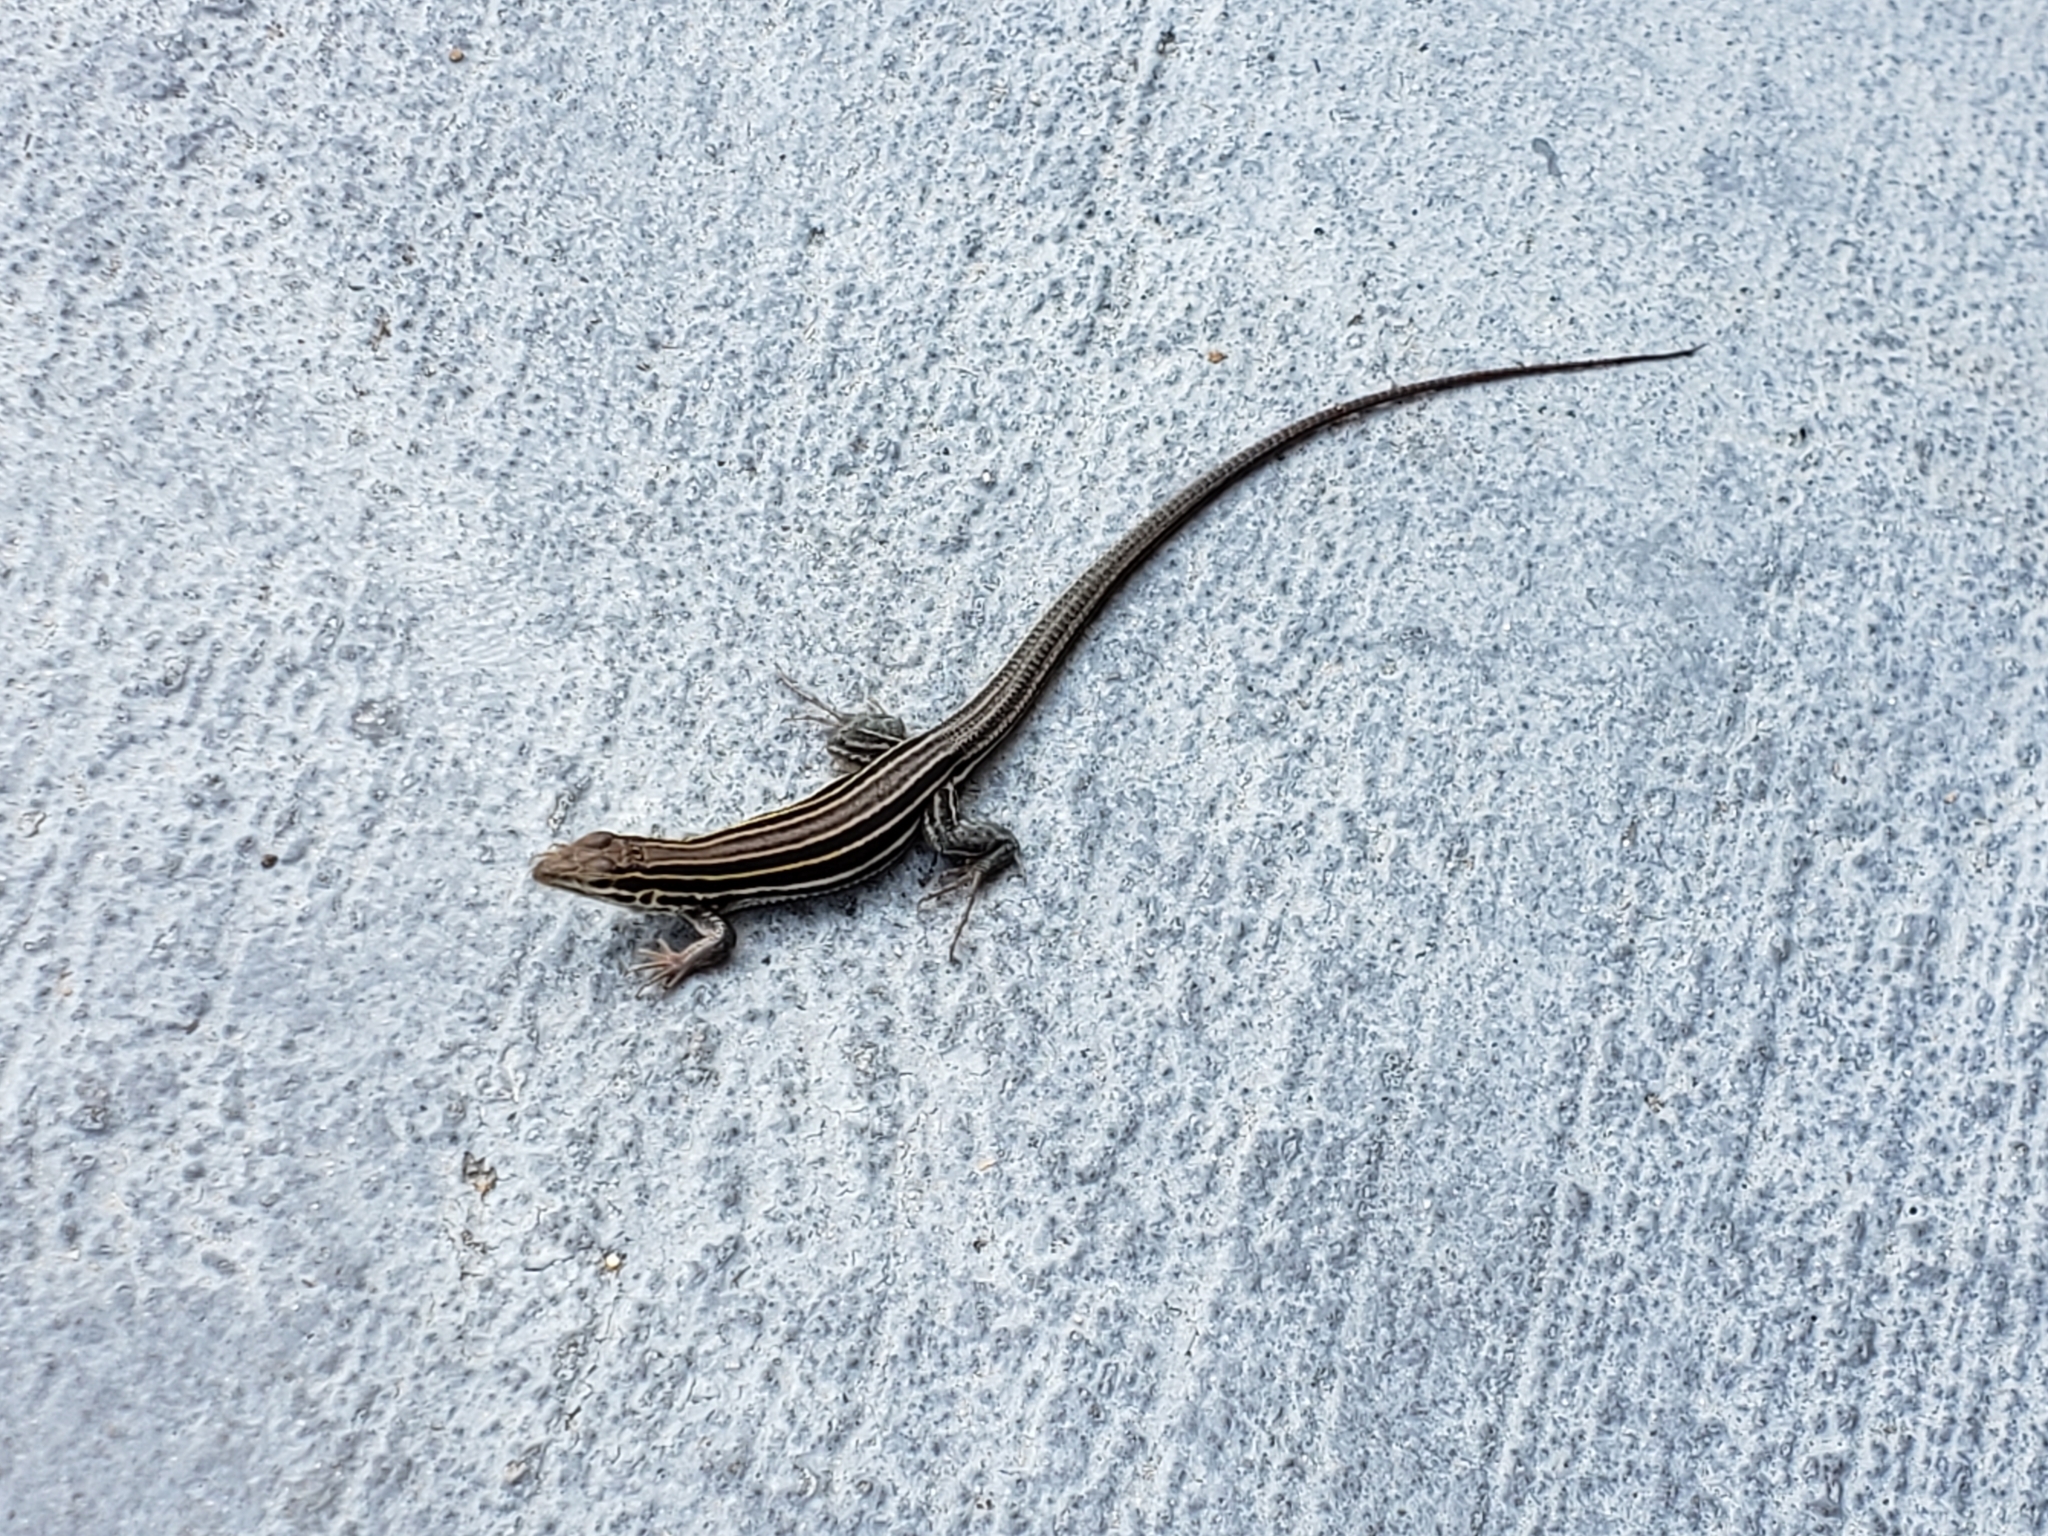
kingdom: Animalia
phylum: Chordata
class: Squamata
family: Teiidae
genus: Aspidoscelis
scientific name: Aspidoscelis sexlineatus
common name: Six-lined racerunner
